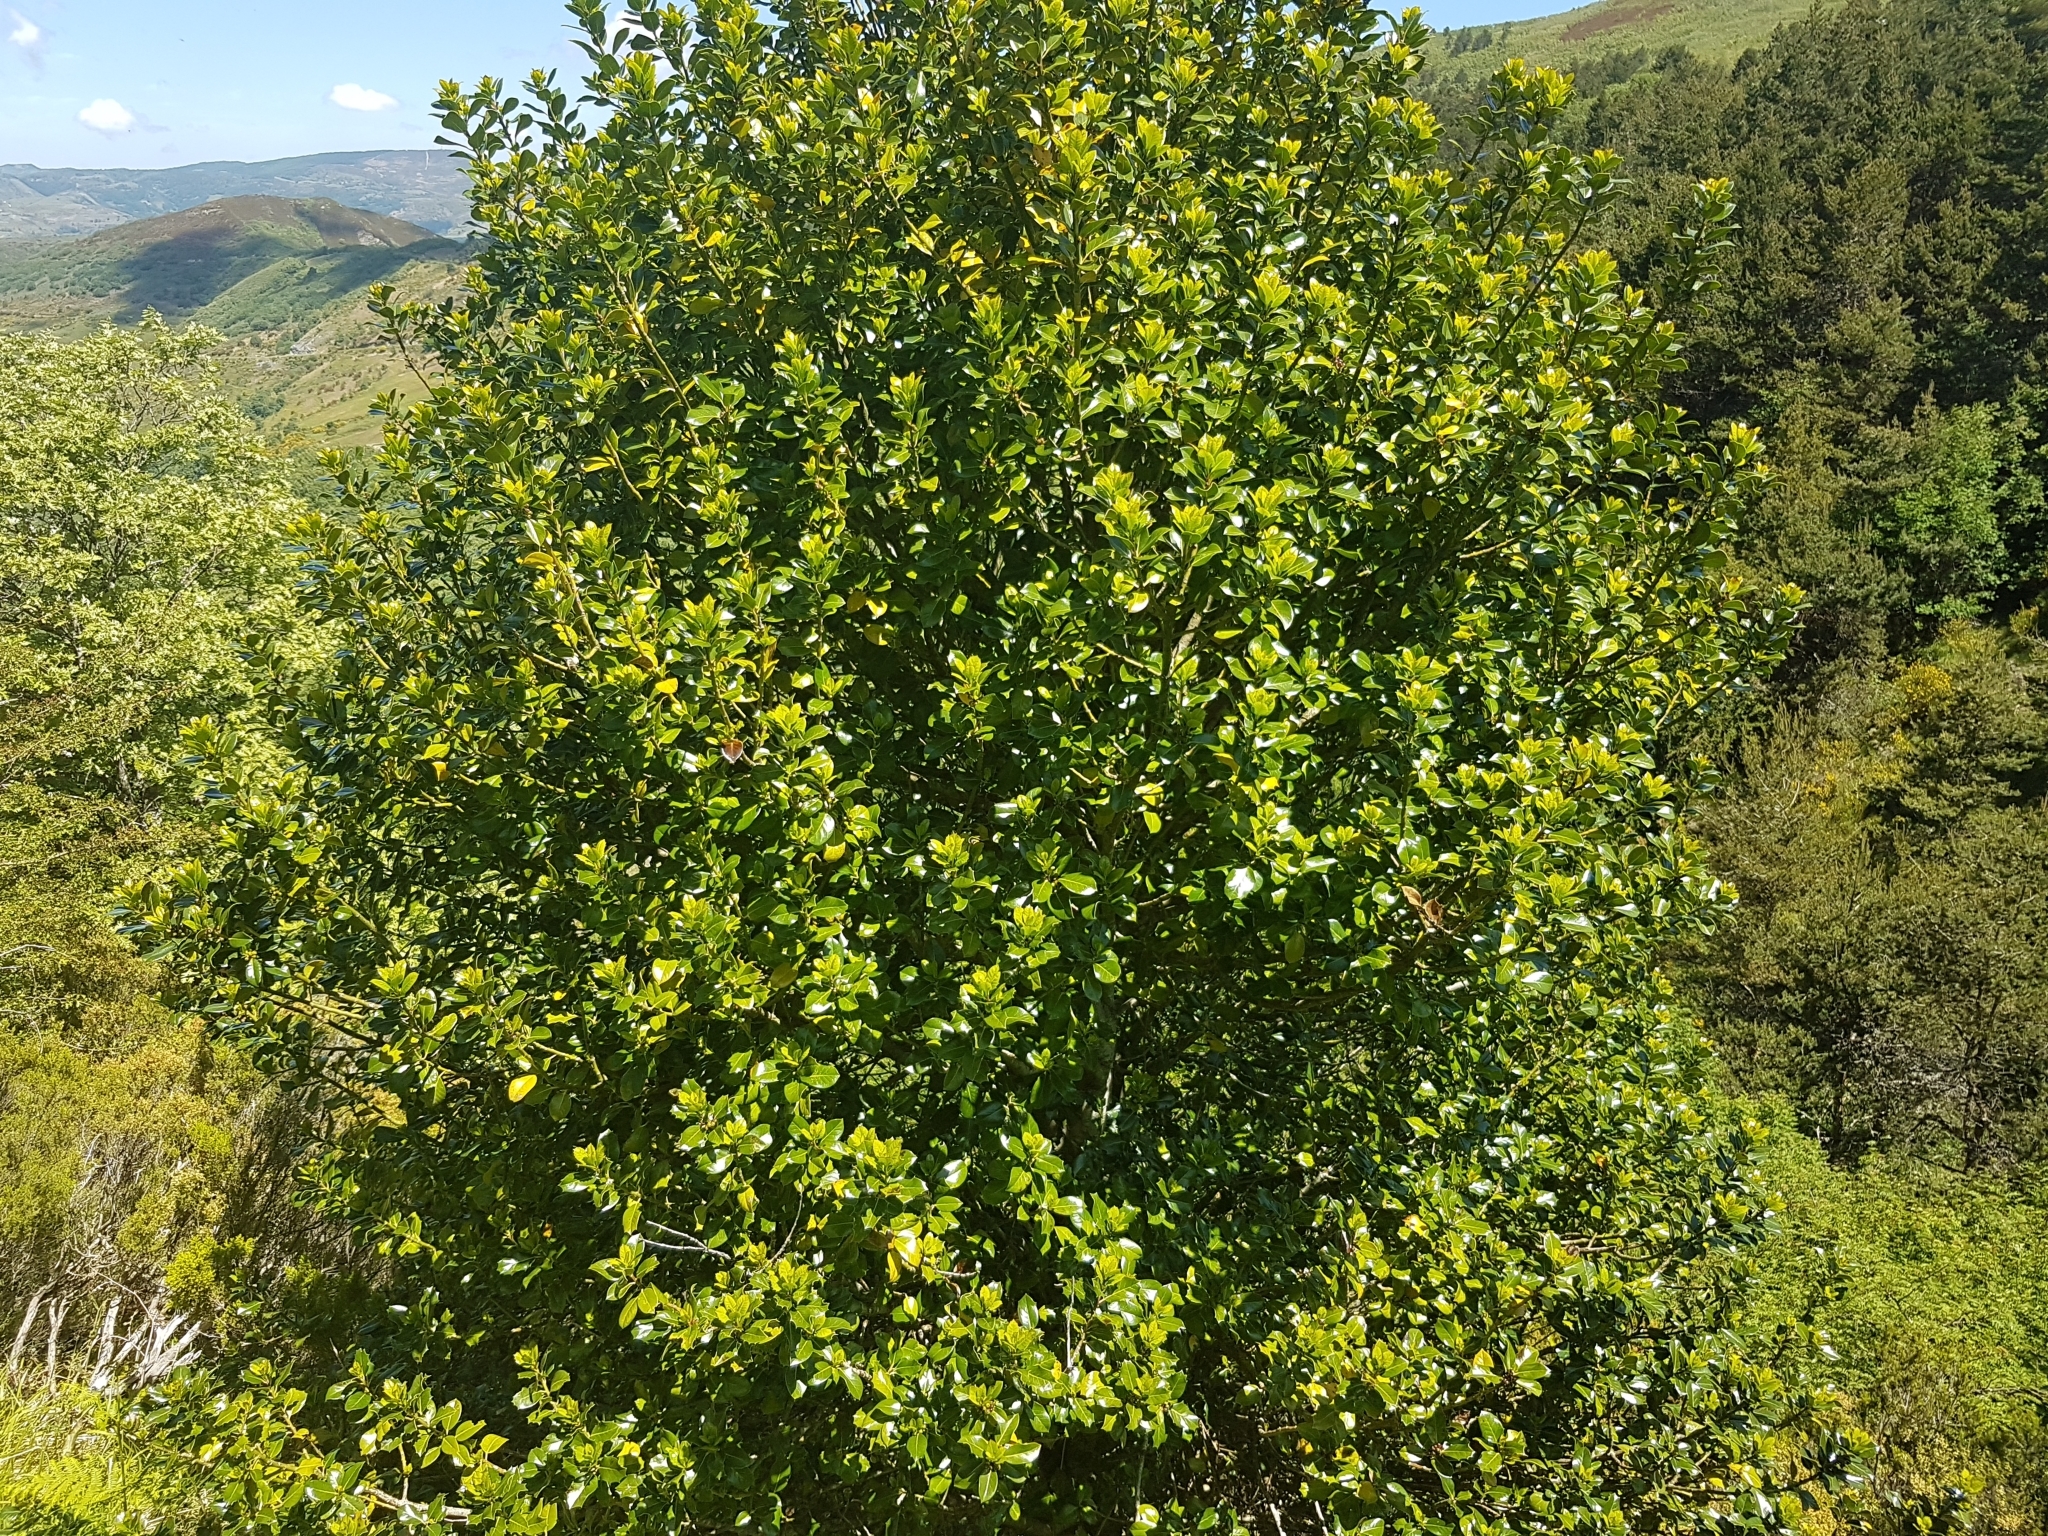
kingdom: Plantae
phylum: Tracheophyta
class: Magnoliopsida
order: Aquifoliales
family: Aquifoliaceae
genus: Ilex
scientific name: Ilex aquifolium
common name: English holly
